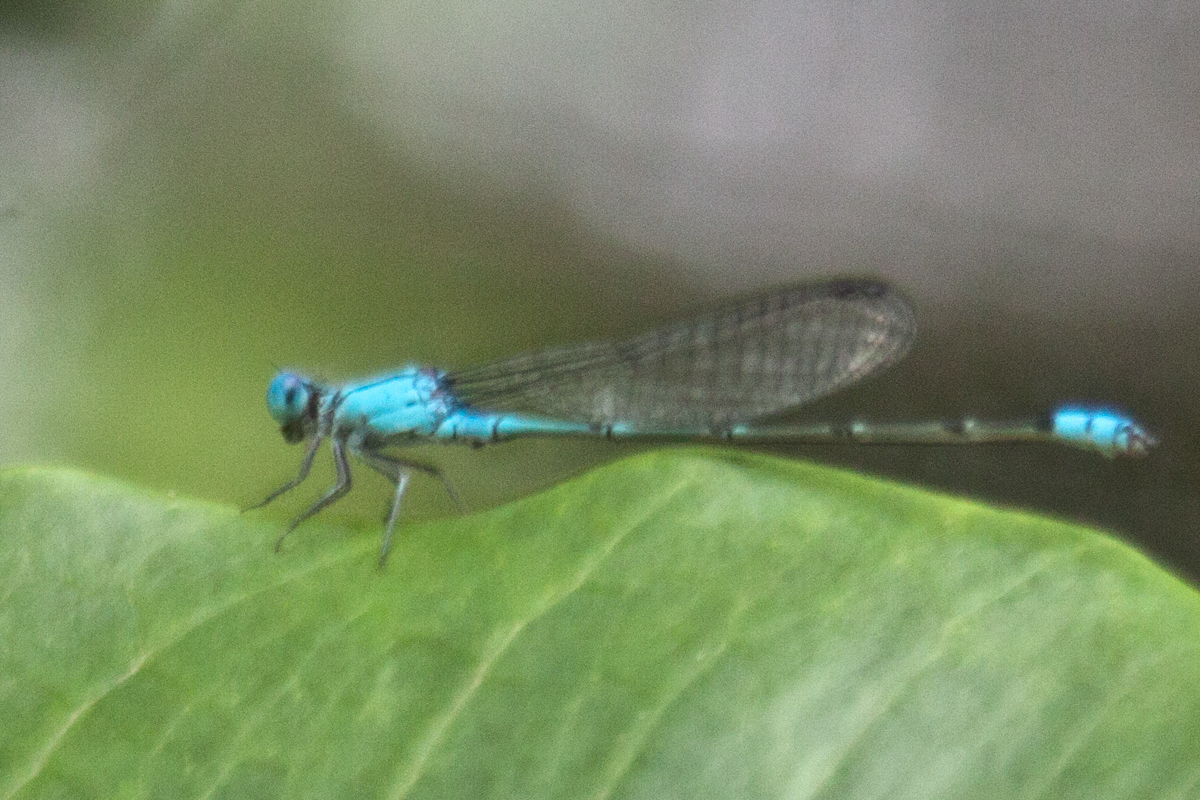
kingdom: Animalia
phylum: Arthropoda
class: Insecta
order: Odonata
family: Coenagrionidae
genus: Pseudagrion
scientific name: Pseudagrion microcephalum
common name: Blue riverdamsel
